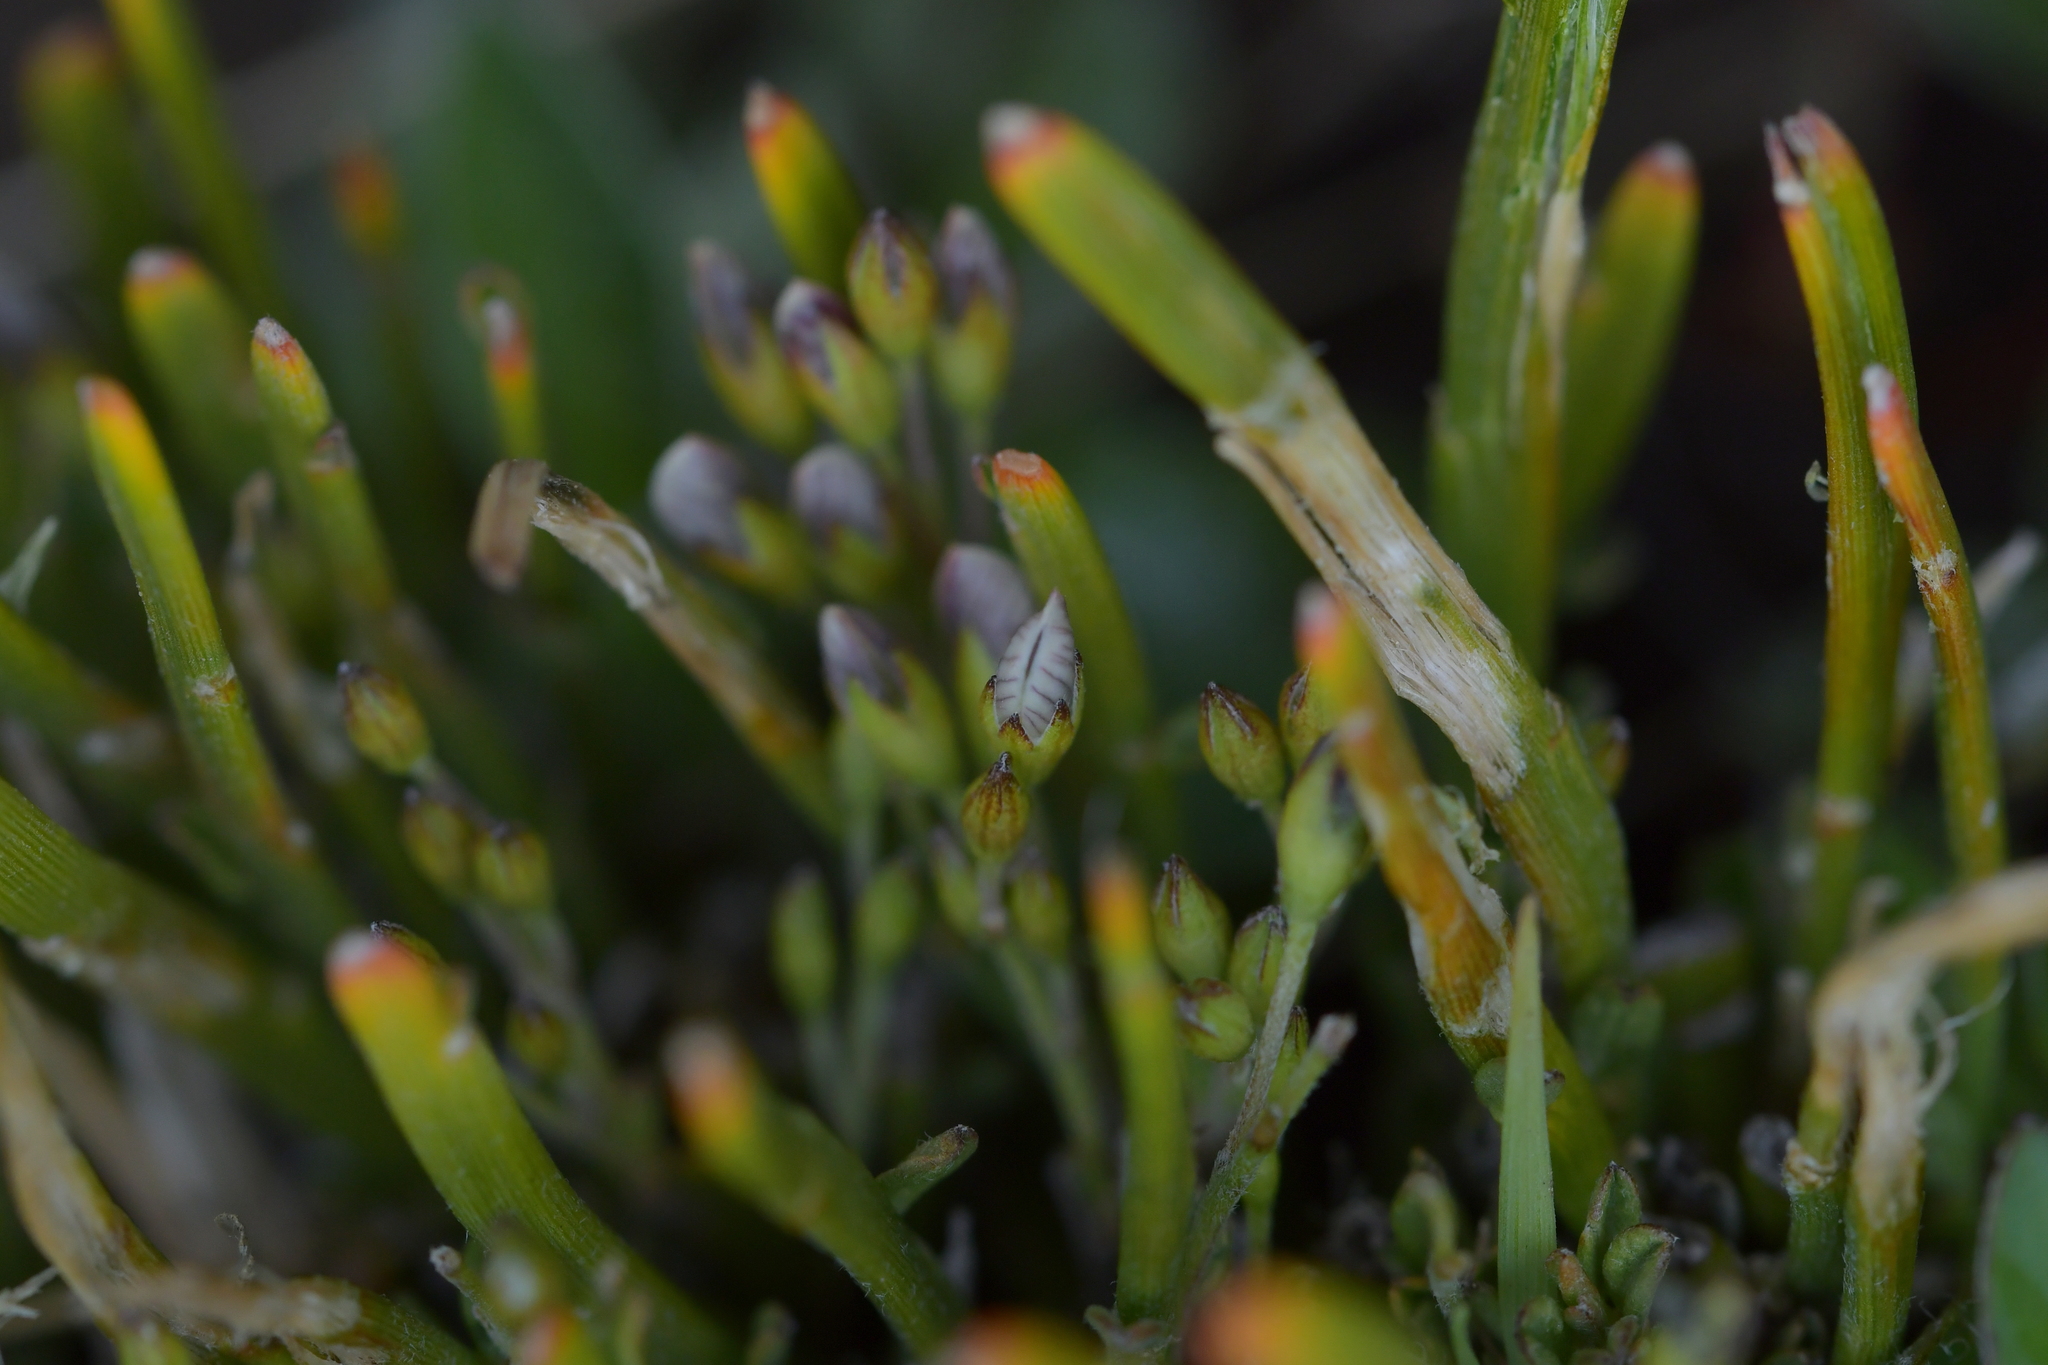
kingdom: Plantae
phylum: Tracheophyta
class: Magnoliopsida
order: Fabales
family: Fabaceae
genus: Carmichaelia
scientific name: Carmichaelia vexillata
